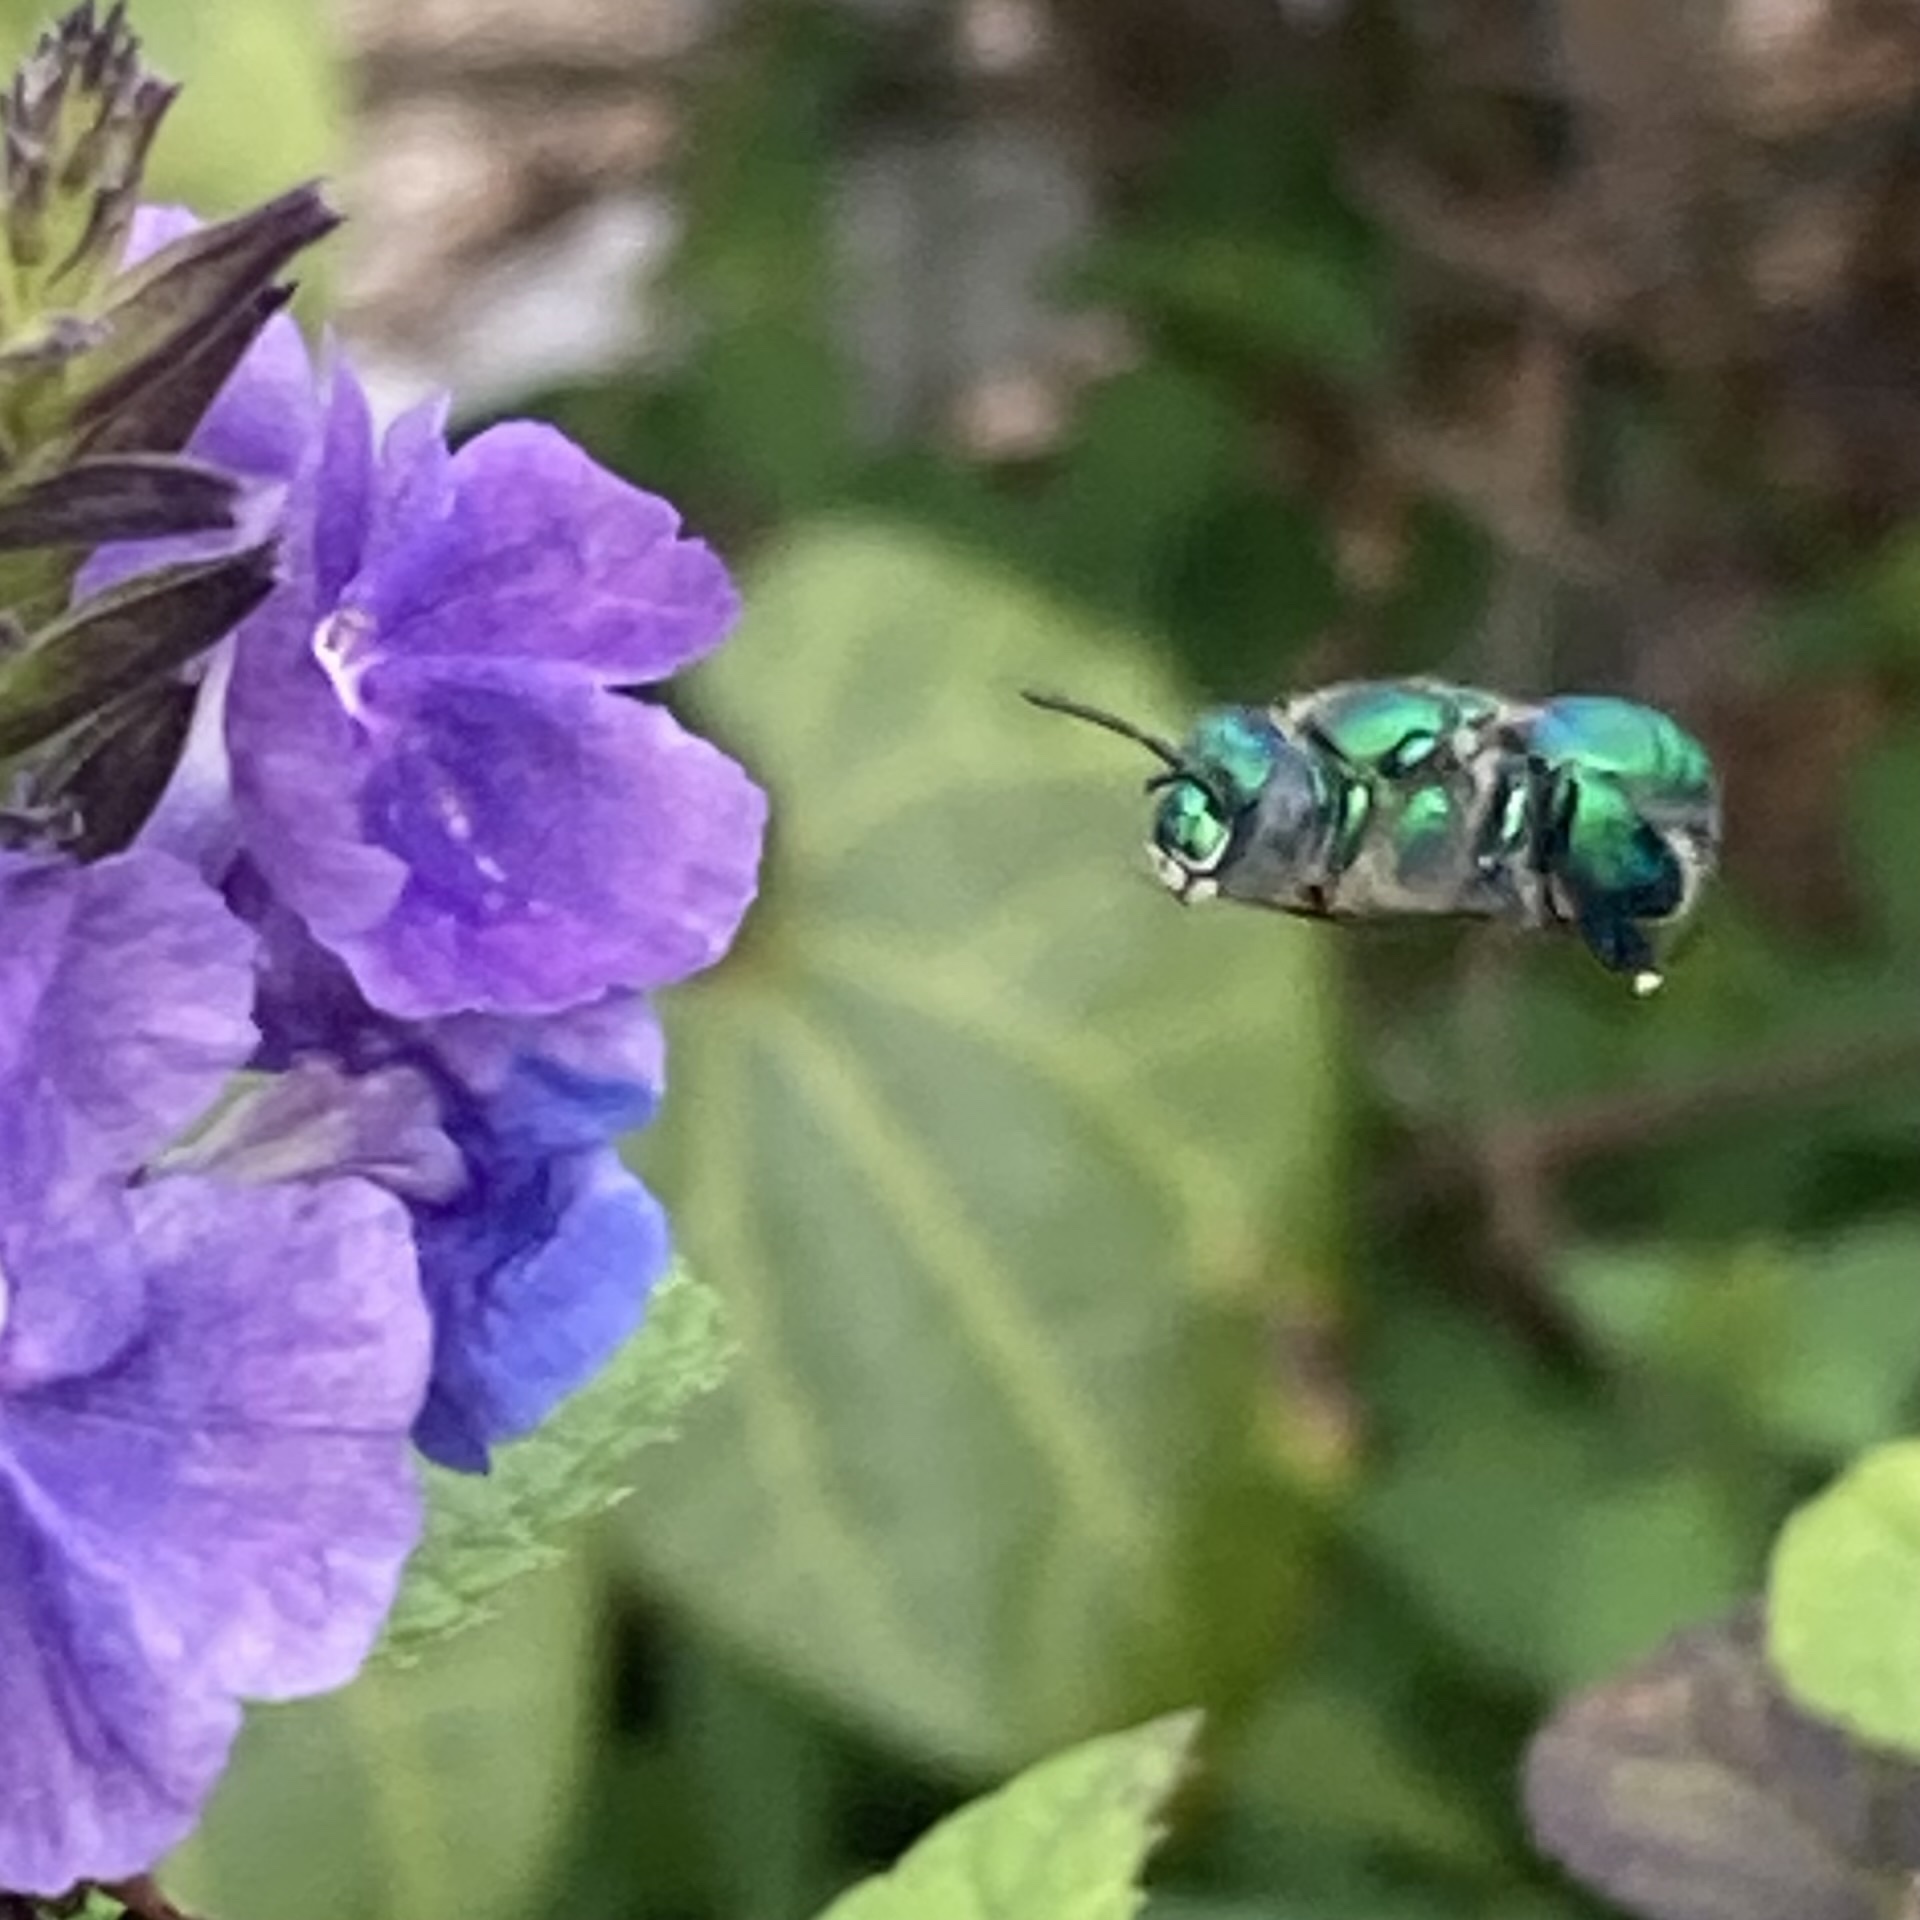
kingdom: Animalia
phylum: Arthropoda
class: Insecta
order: Hymenoptera
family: Apidae
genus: Euglossa
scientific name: Euglossa dilemma
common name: Green orchid bee
